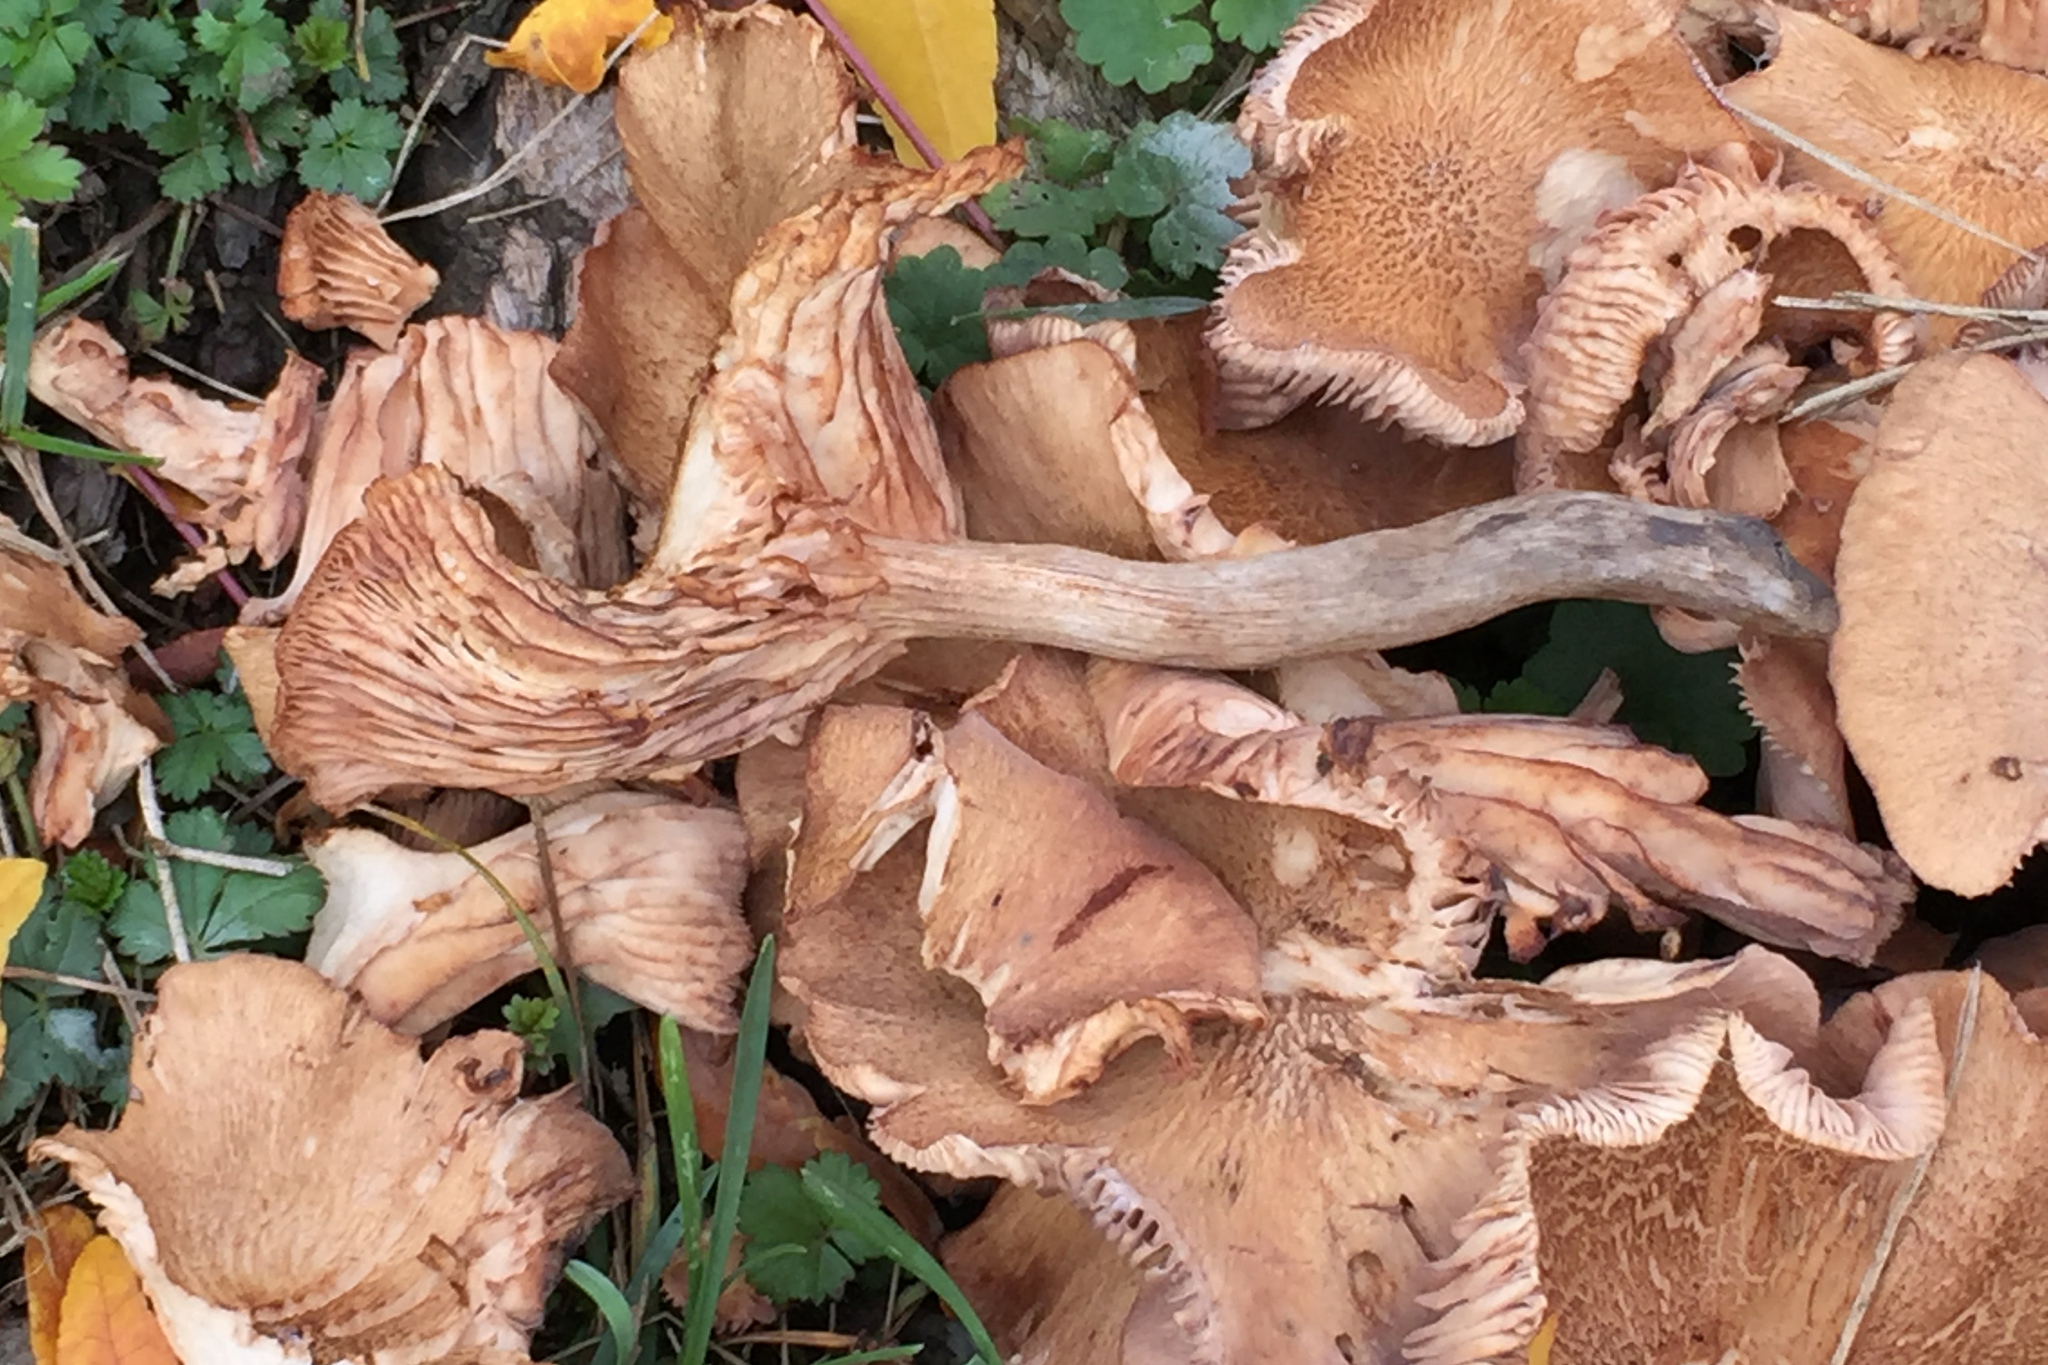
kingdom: Fungi
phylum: Basidiomycota
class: Agaricomycetes
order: Agaricales
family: Physalacriaceae
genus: Desarmillaria
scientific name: Desarmillaria caespitosa
